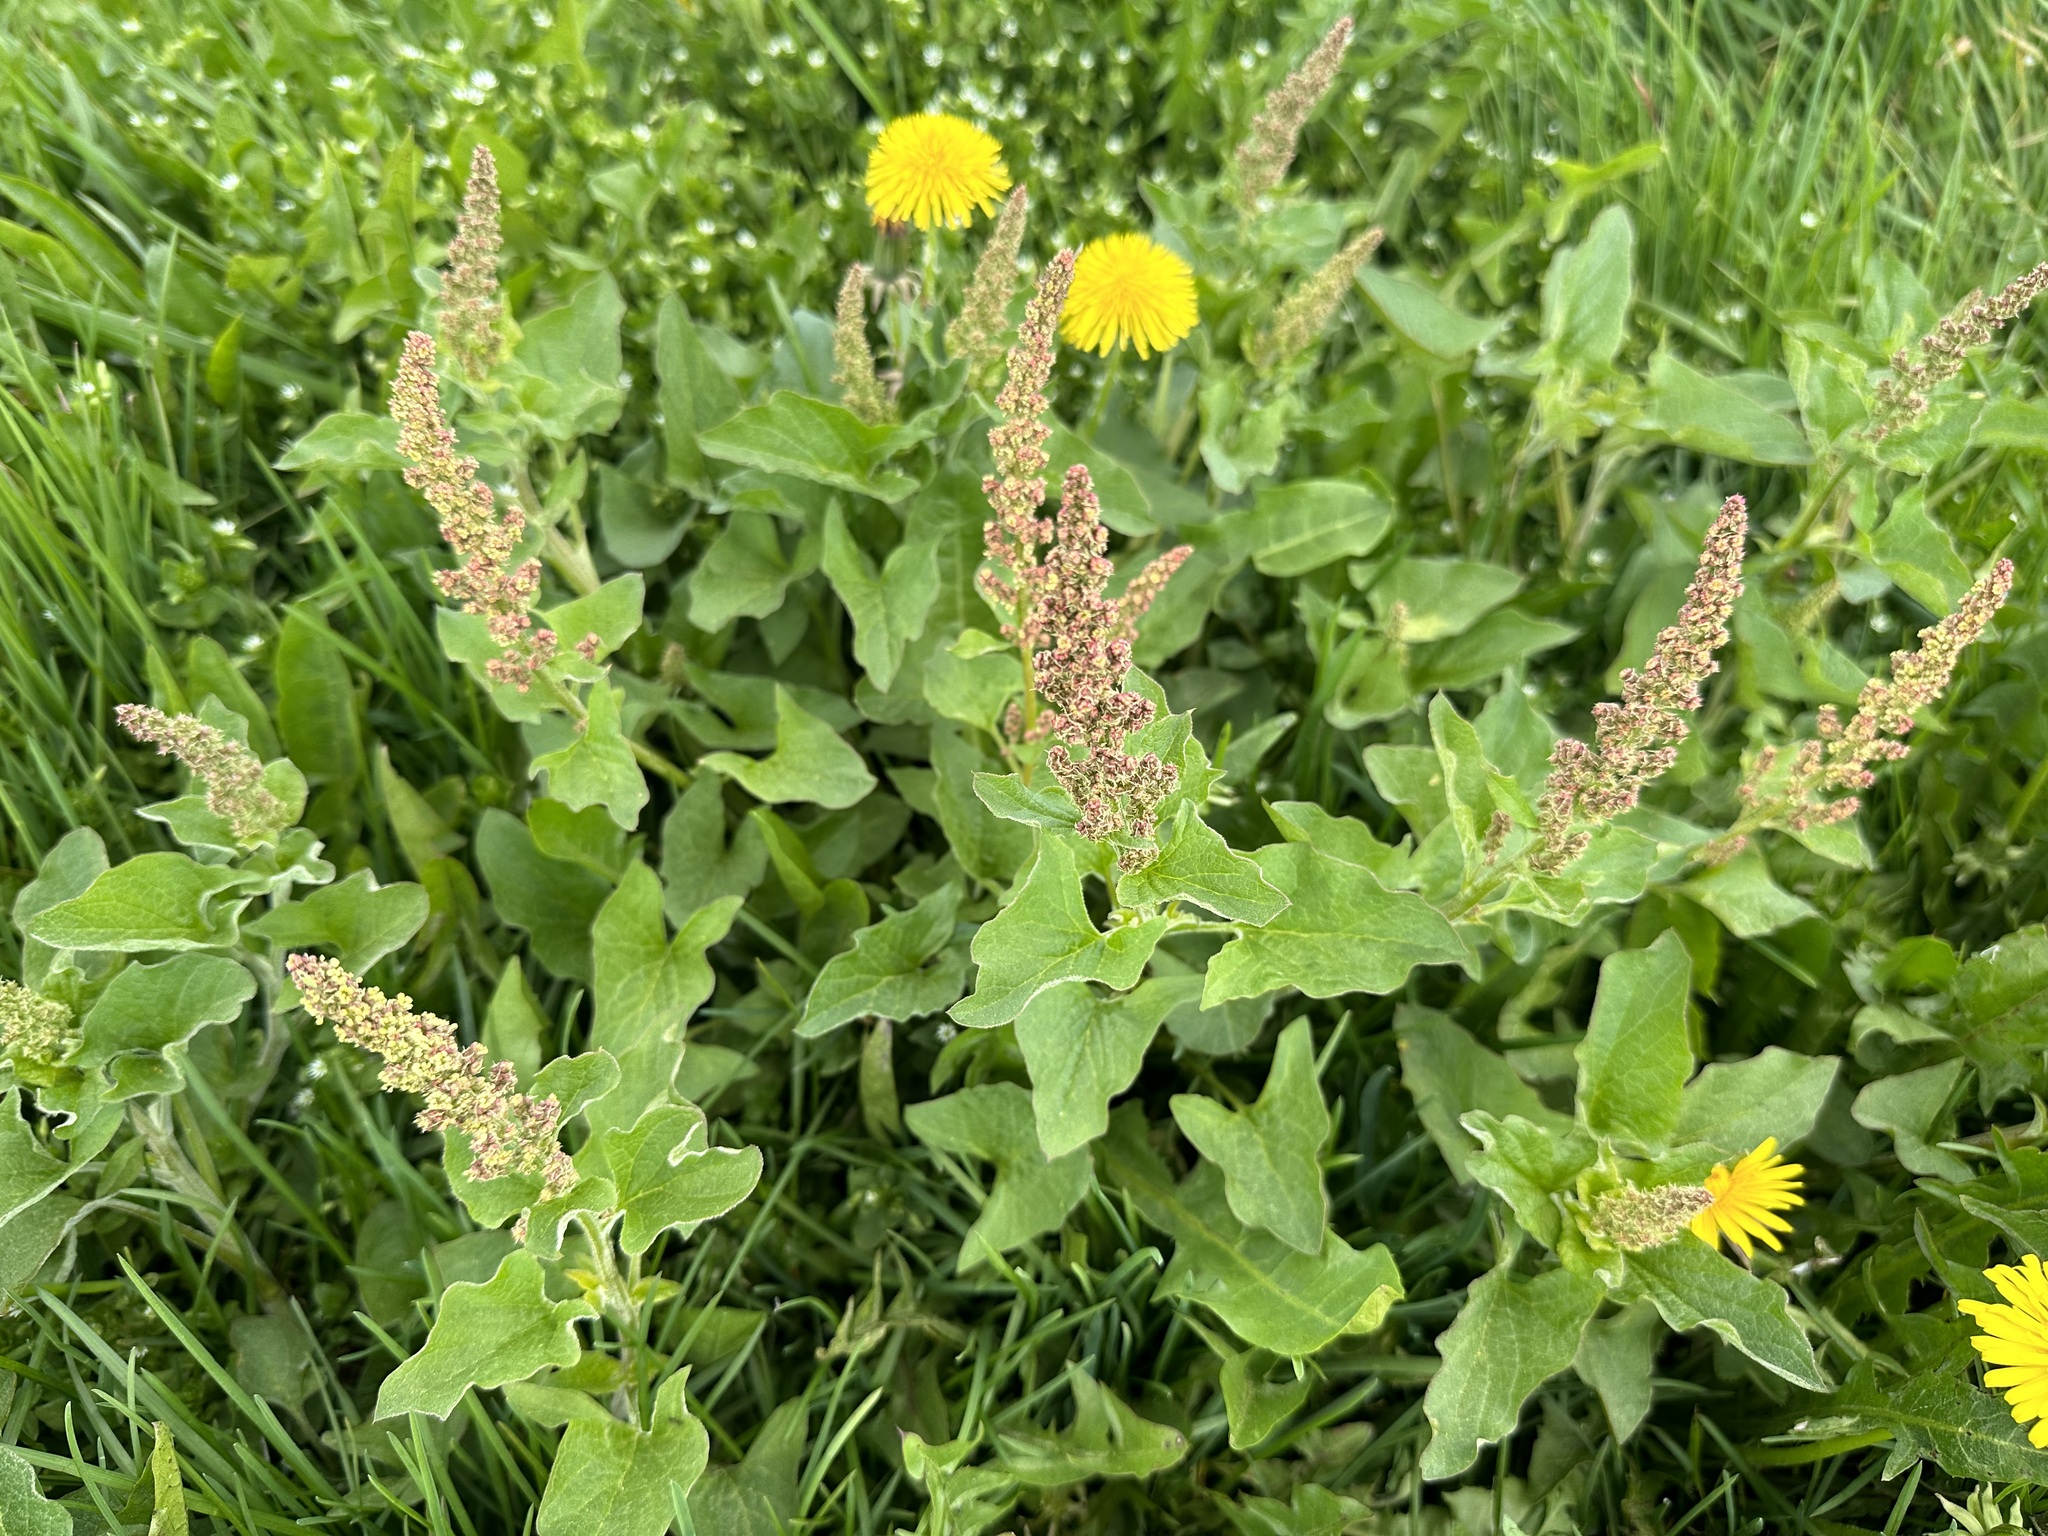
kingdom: Plantae
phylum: Tracheophyta
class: Magnoliopsida
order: Caryophyllales
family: Amaranthaceae
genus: Blitum
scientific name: Blitum bonus-henricus
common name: Good king henry
